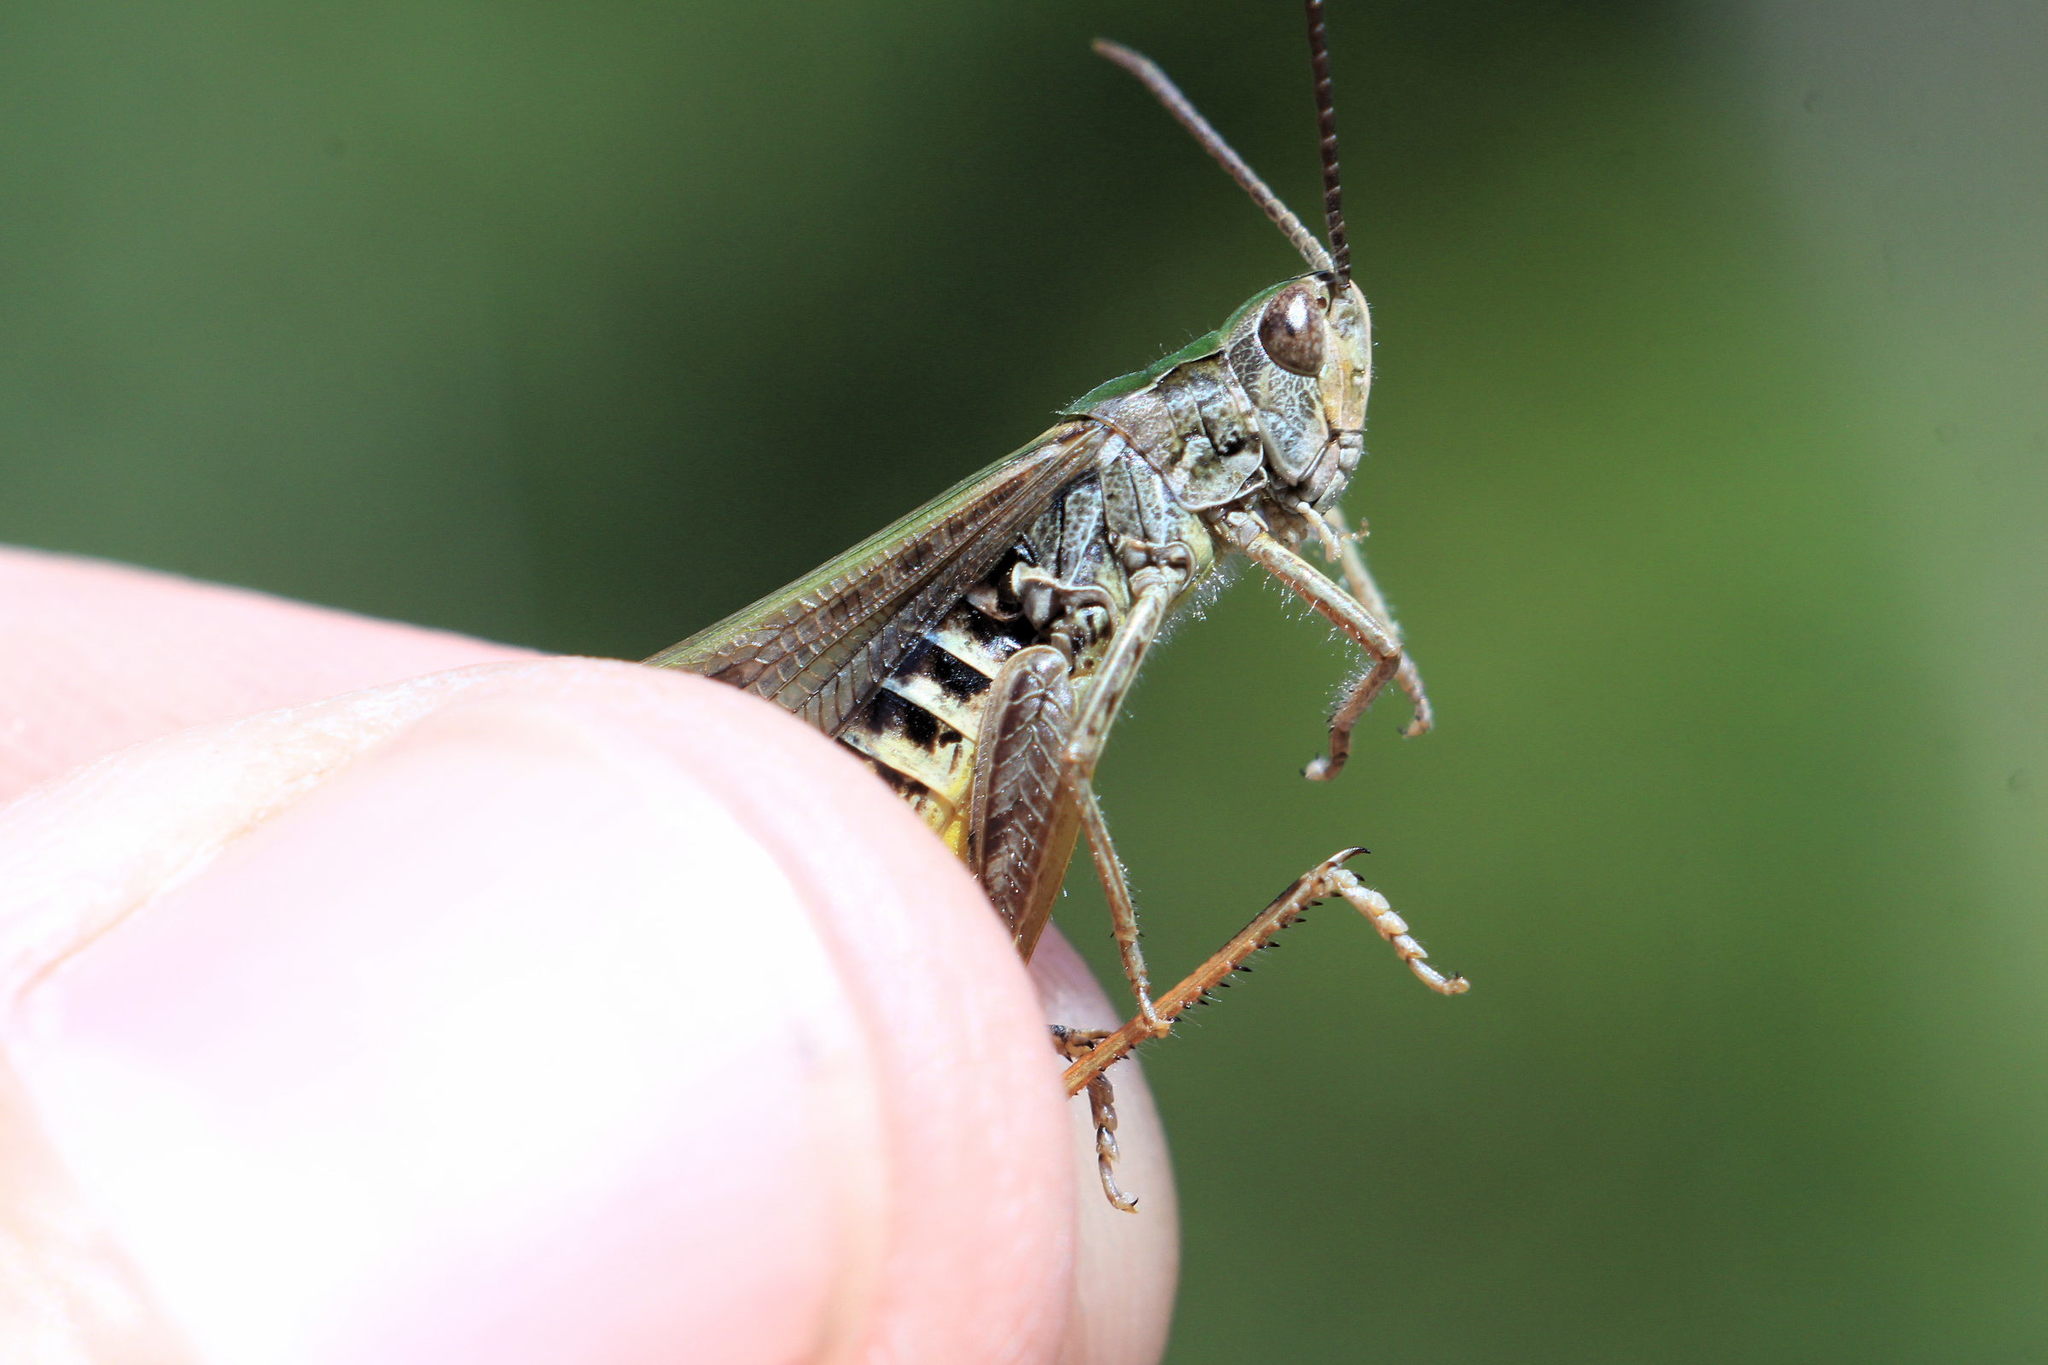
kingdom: Animalia
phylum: Arthropoda
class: Insecta
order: Orthoptera
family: Acrididae
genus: Chorthippus
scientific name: Chorthippus biguttulus
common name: Bow-winged grasshopper
